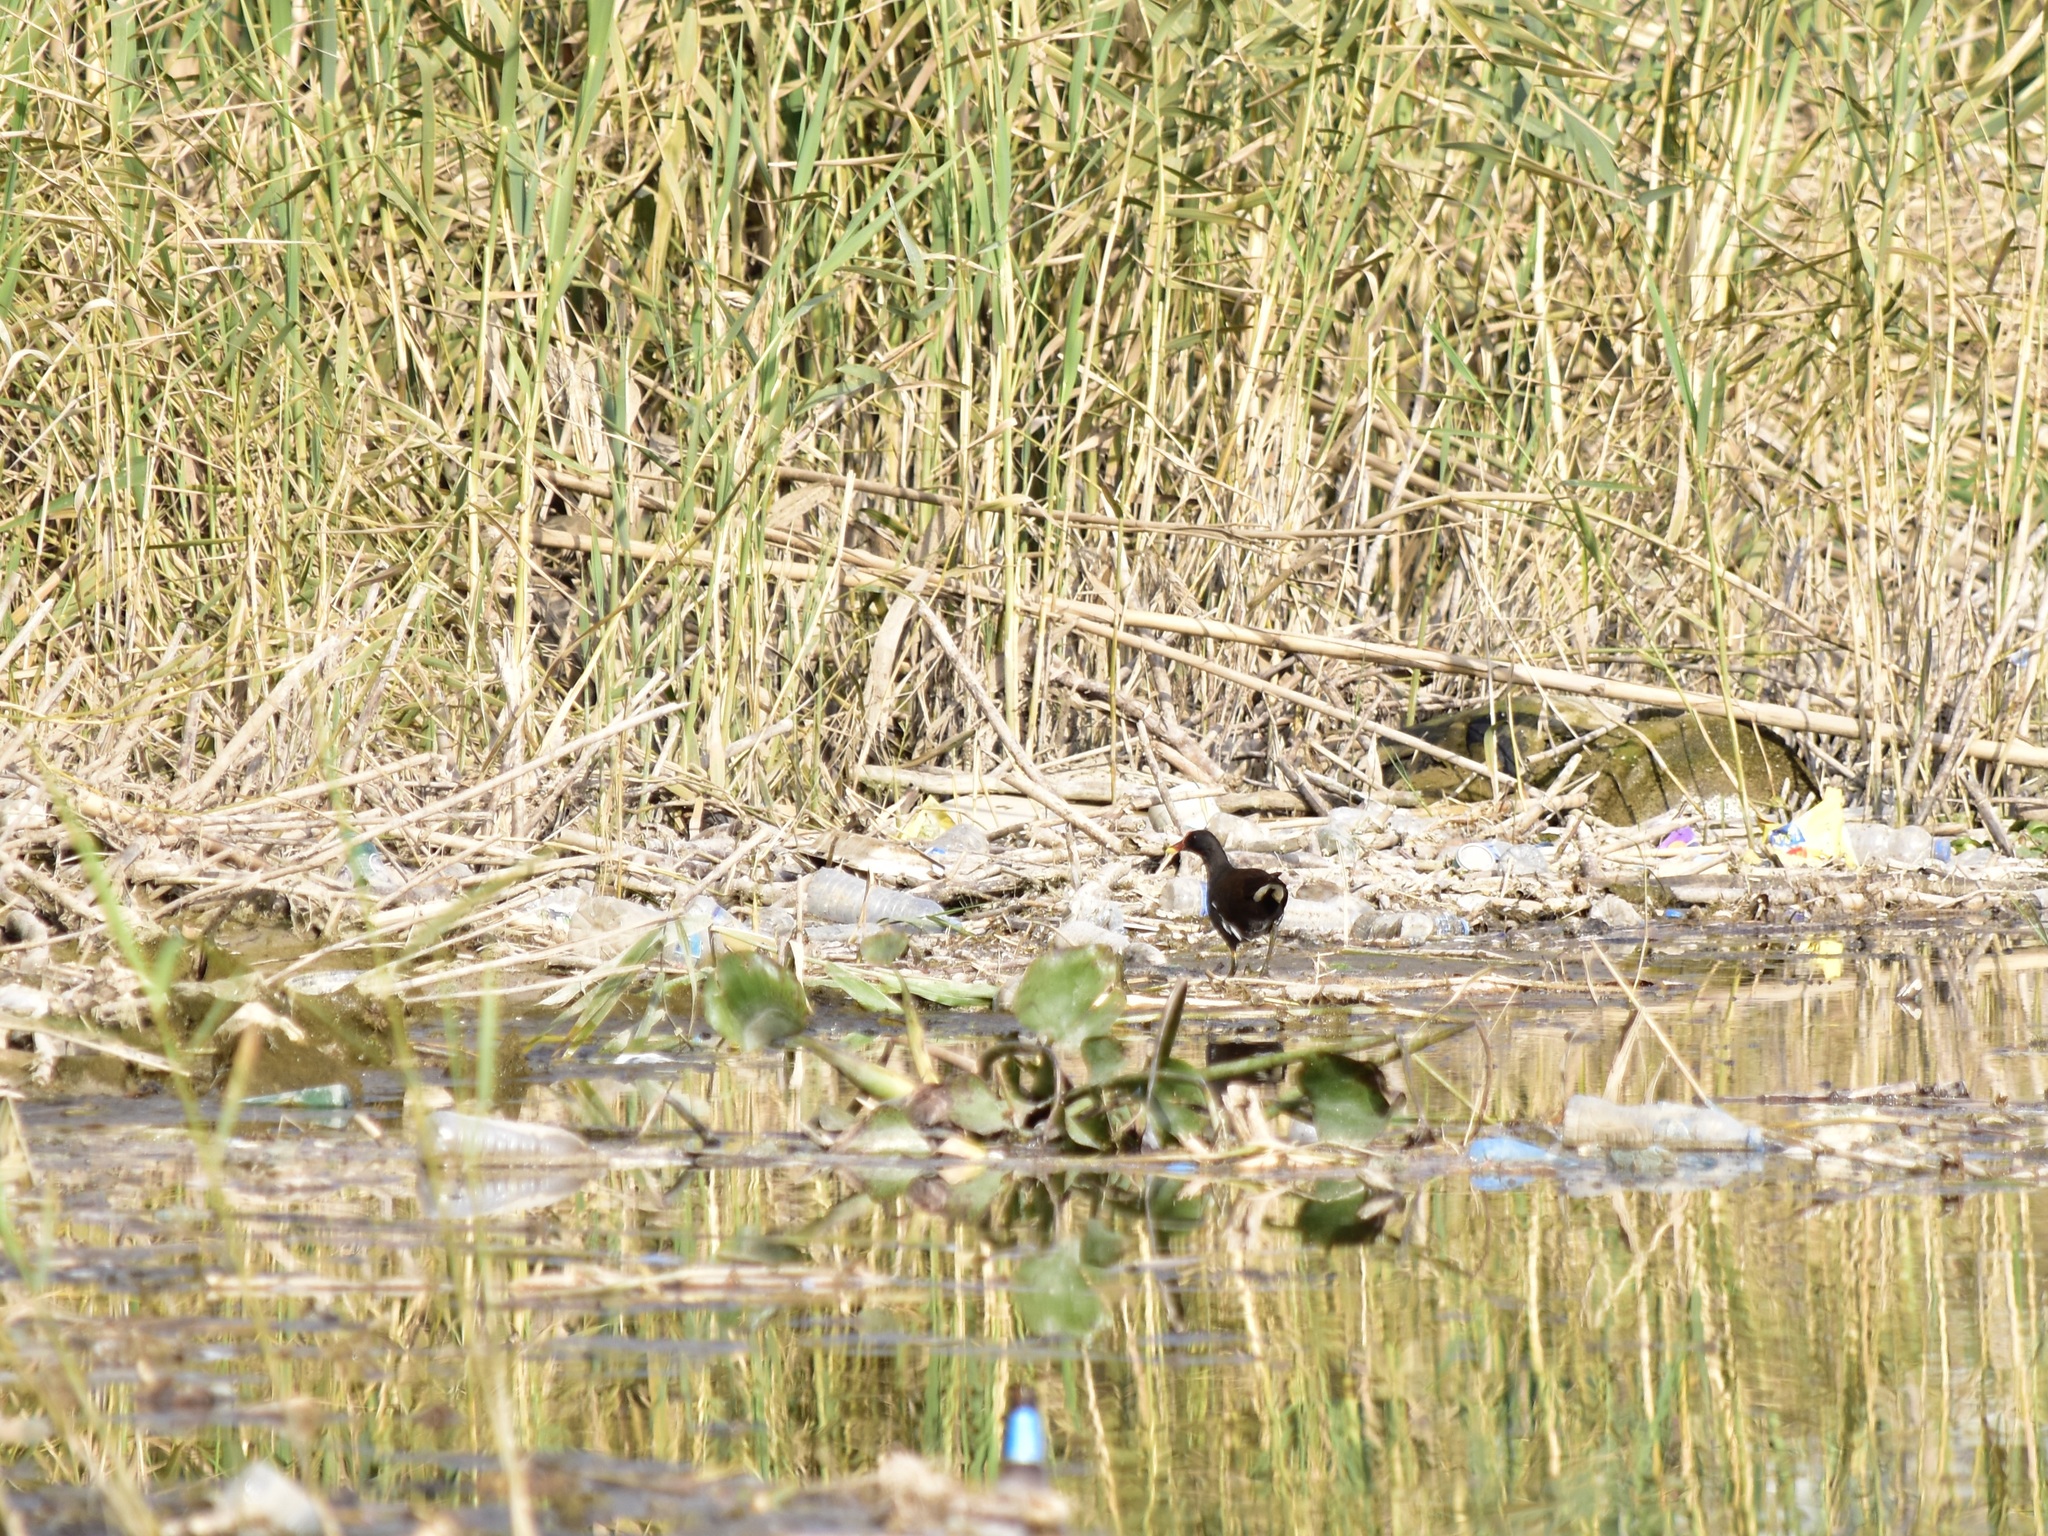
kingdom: Animalia
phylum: Chordata
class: Aves
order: Gruiformes
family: Rallidae
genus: Gallinula
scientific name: Gallinula chloropus
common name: Common moorhen
